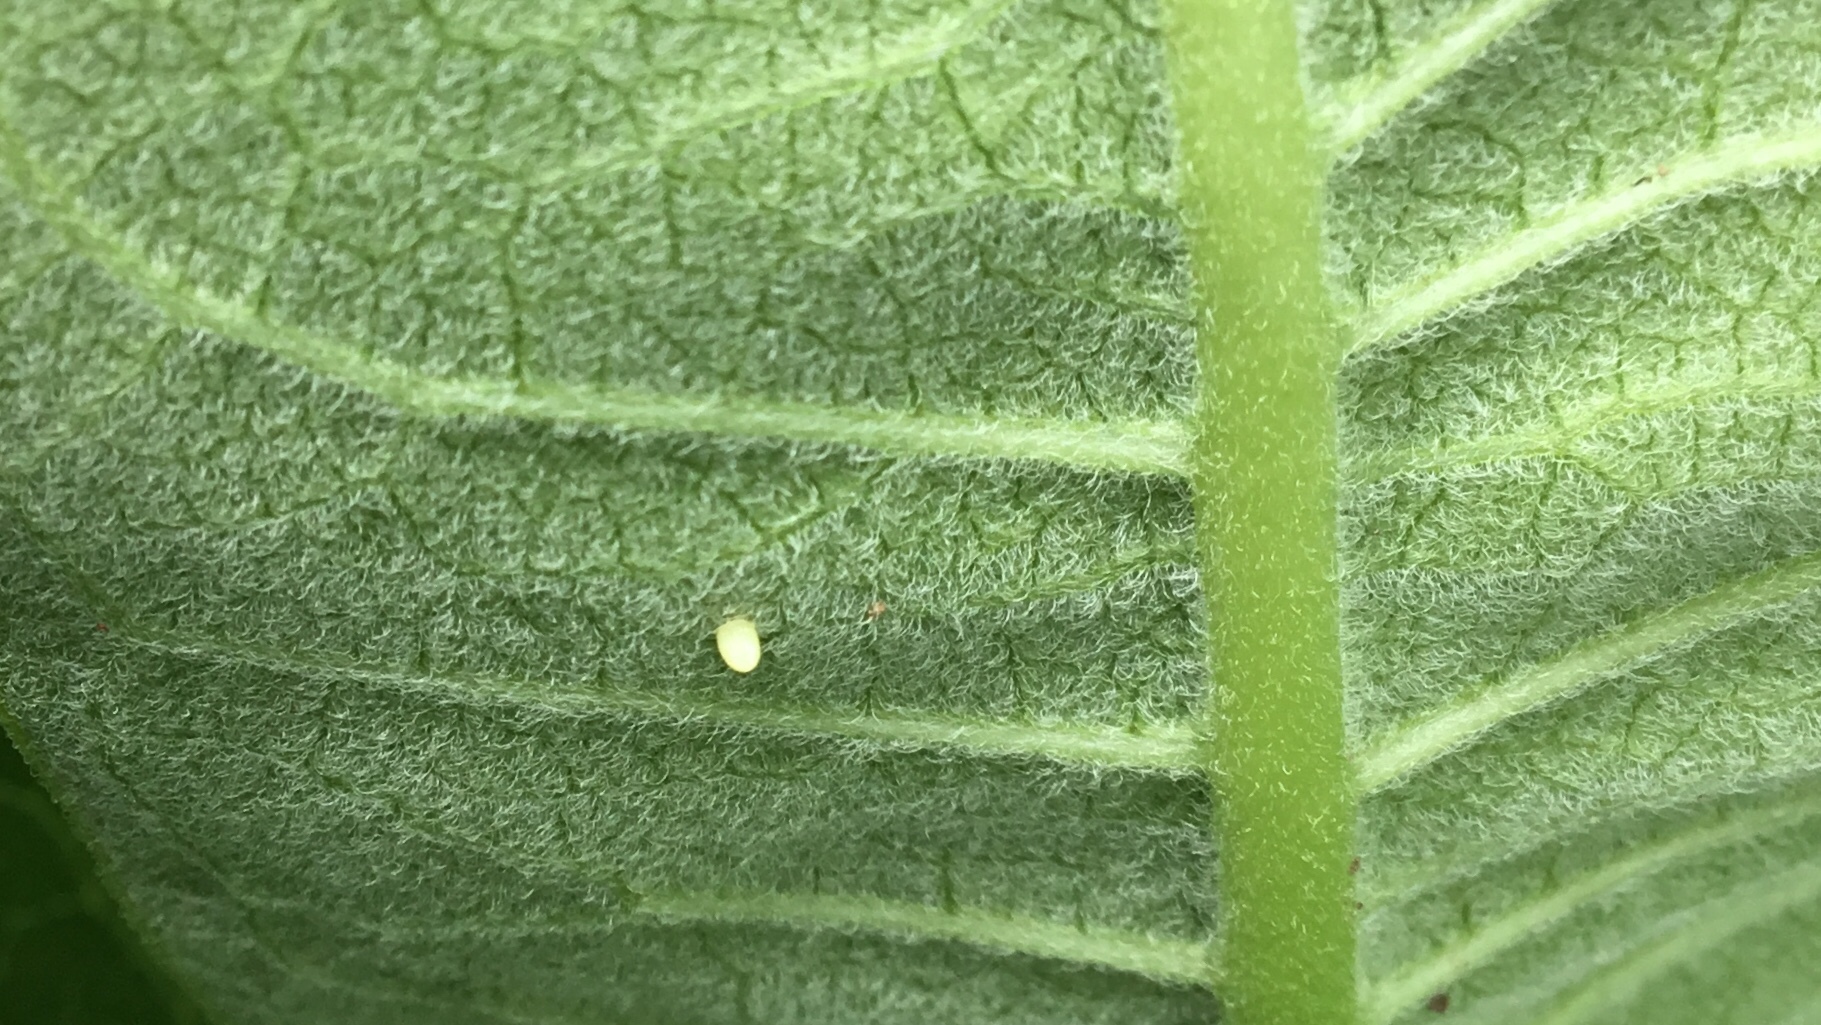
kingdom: Animalia
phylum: Arthropoda
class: Insecta
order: Lepidoptera
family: Nymphalidae
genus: Danaus
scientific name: Danaus plexippus
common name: Monarch
